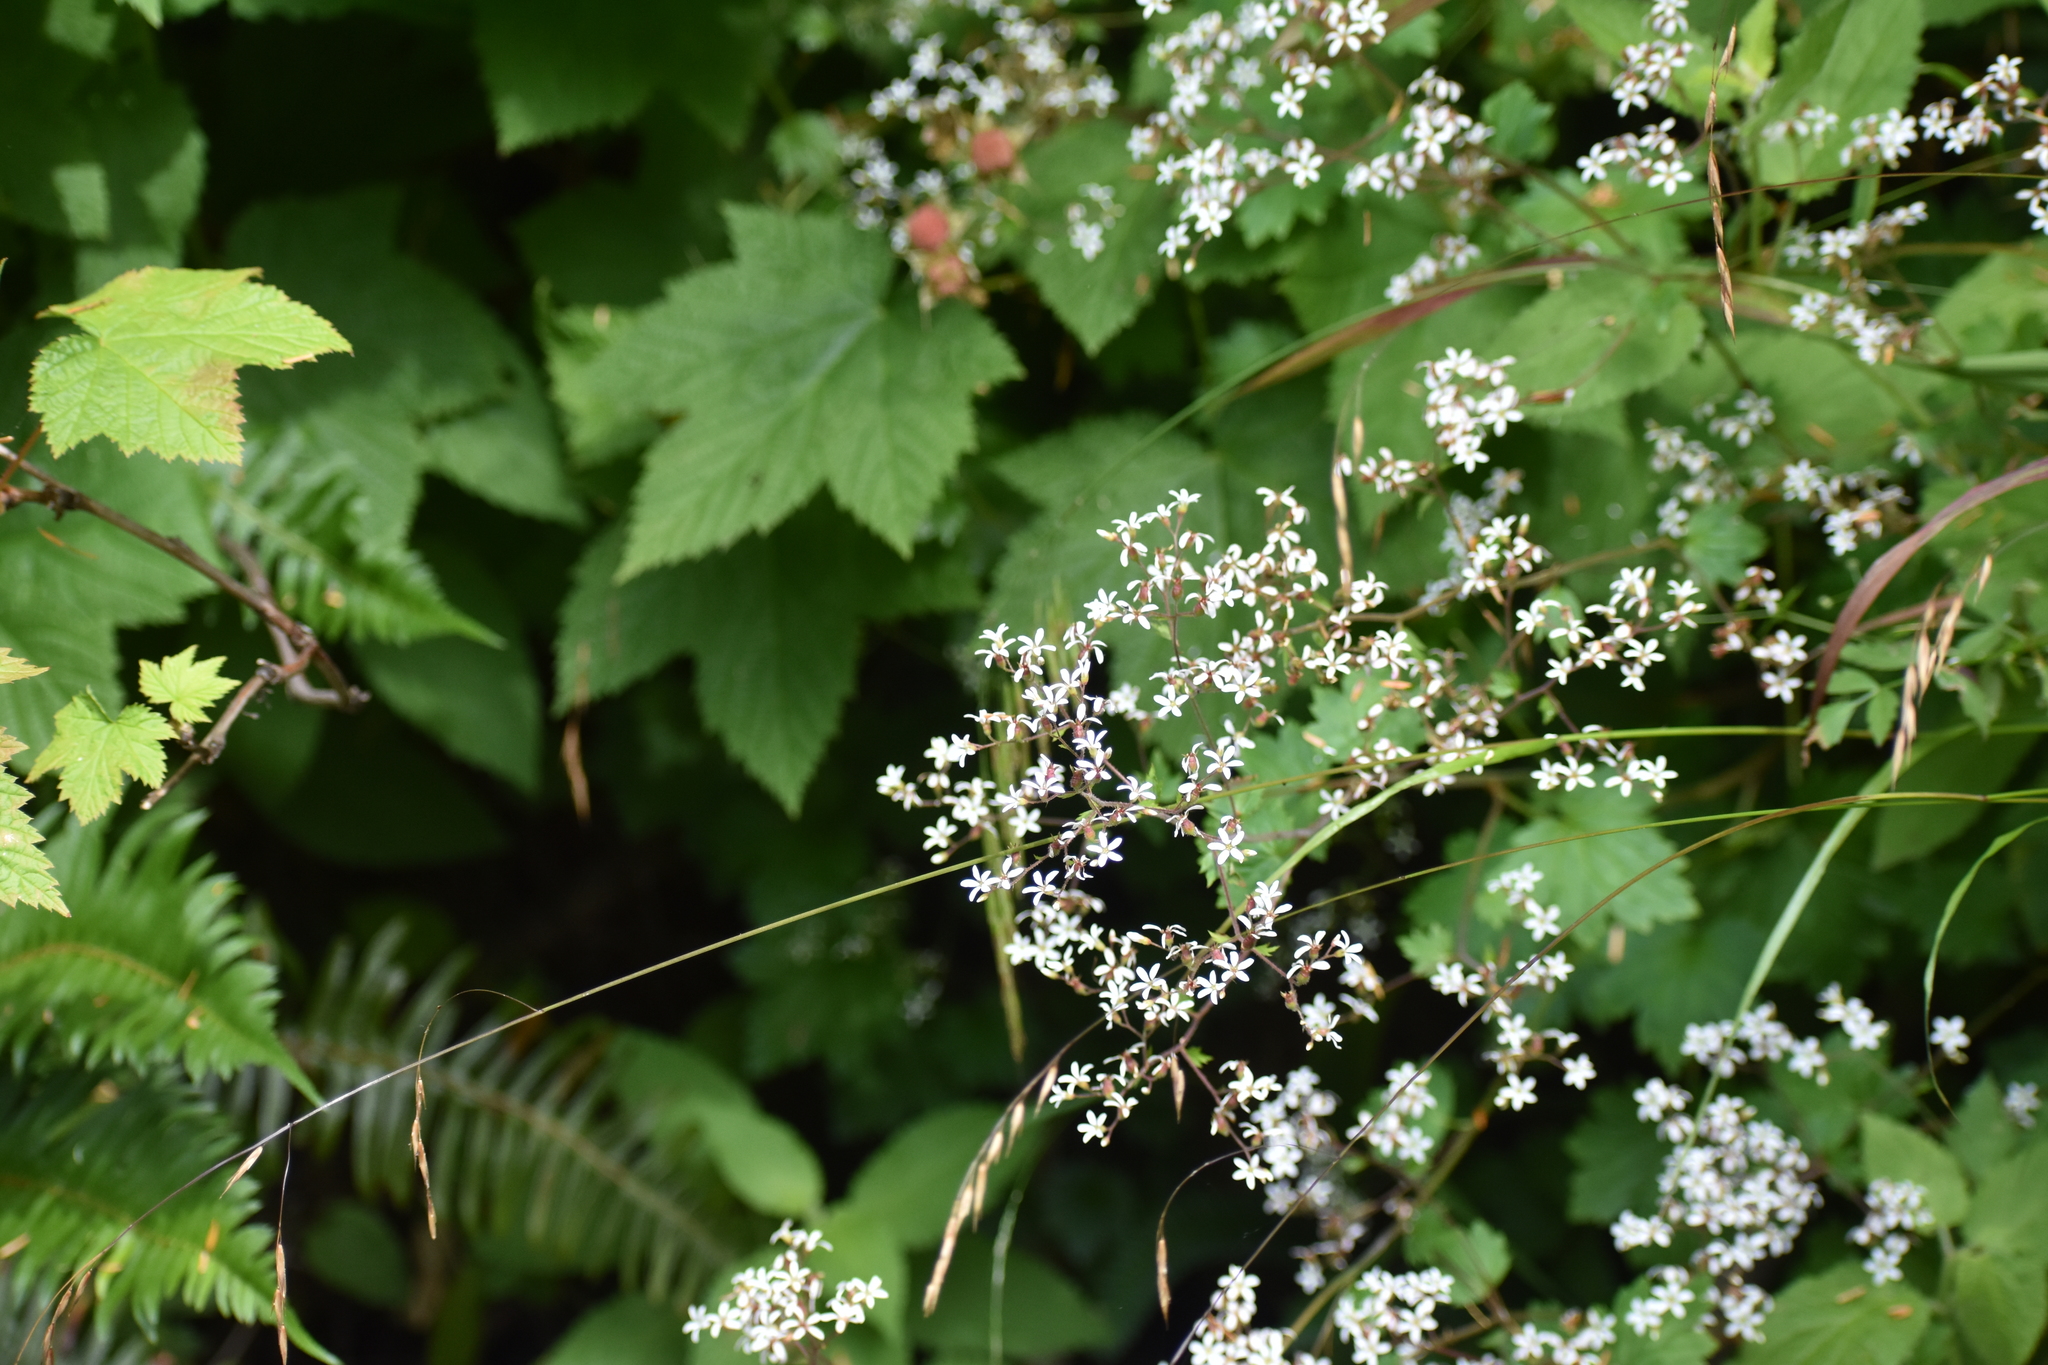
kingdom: Plantae
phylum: Tracheophyta
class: Magnoliopsida
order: Saxifragales
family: Saxifragaceae
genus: Boykinia
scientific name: Boykinia occidentalis
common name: Coast boykinia
